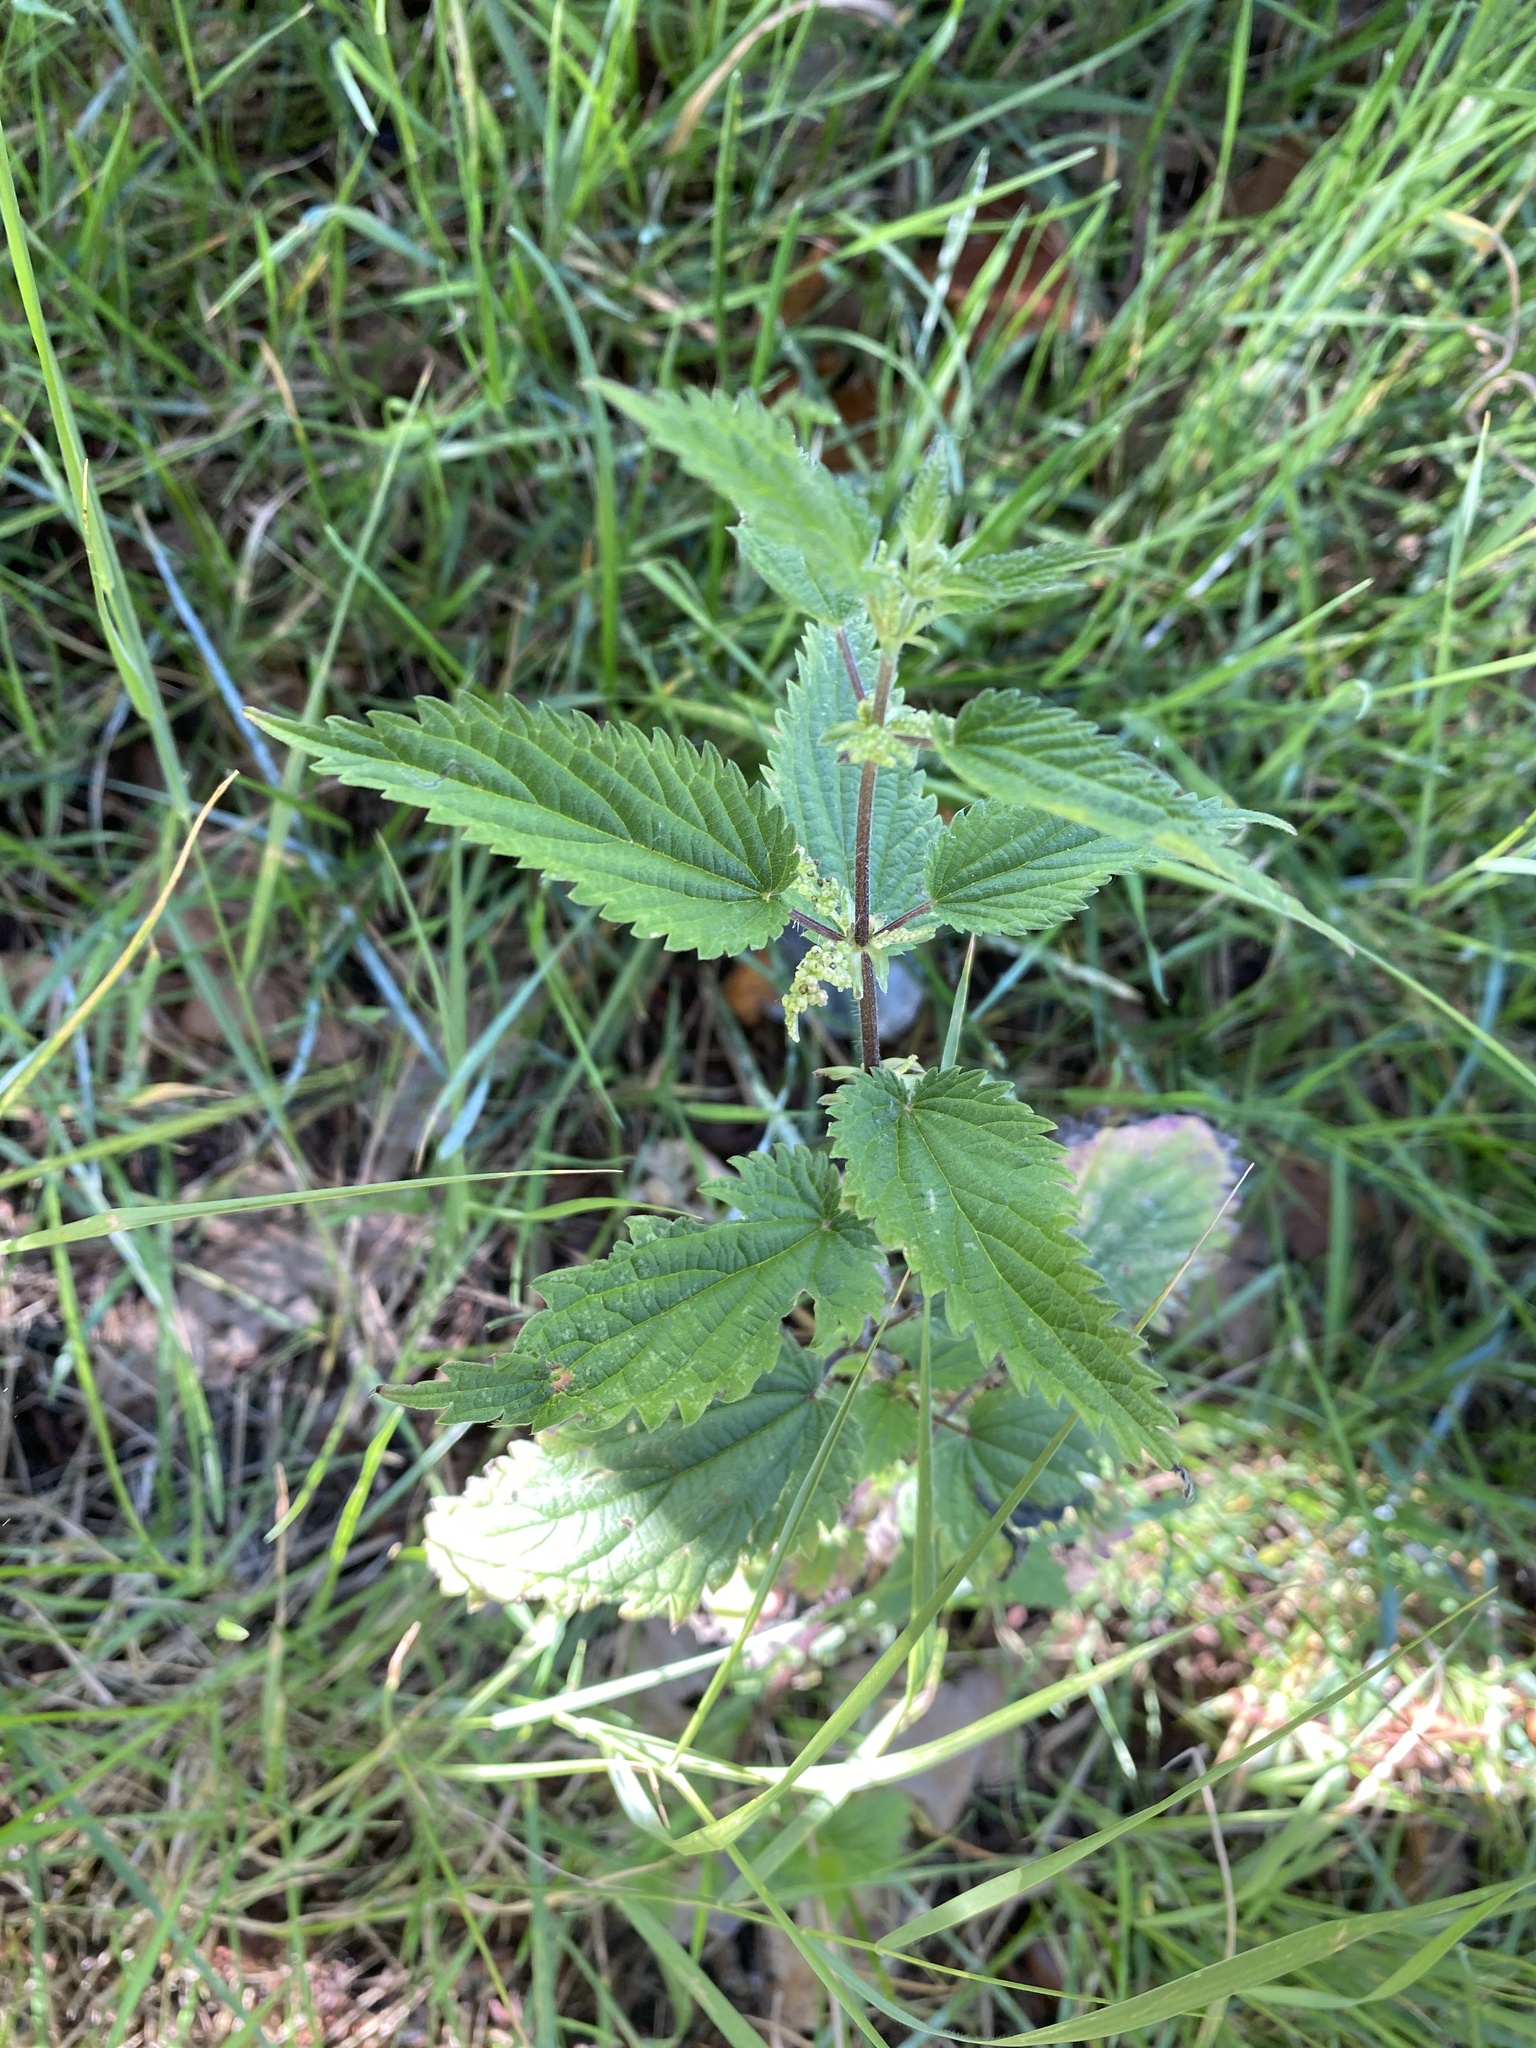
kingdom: Plantae
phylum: Tracheophyta
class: Magnoliopsida
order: Rosales
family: Urticaceae
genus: Urtica
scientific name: Urtica dioica
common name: Common nettle
